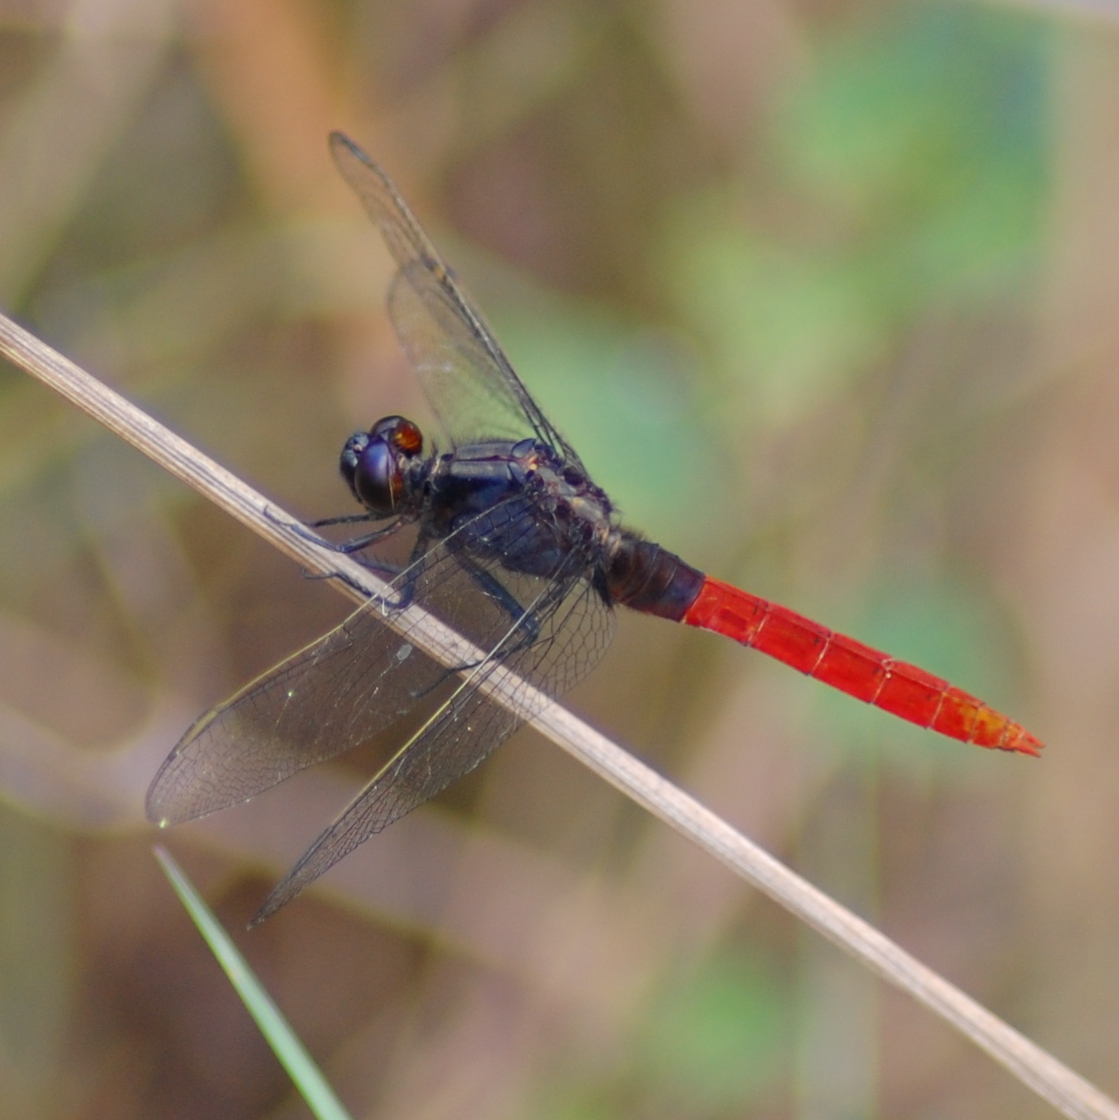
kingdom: Animalia
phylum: Arthropoda
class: Insecta
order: Odonata
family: Libellulidae
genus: Erythemis
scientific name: Erythemis peruviana
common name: Flame-tailed pondhawk
